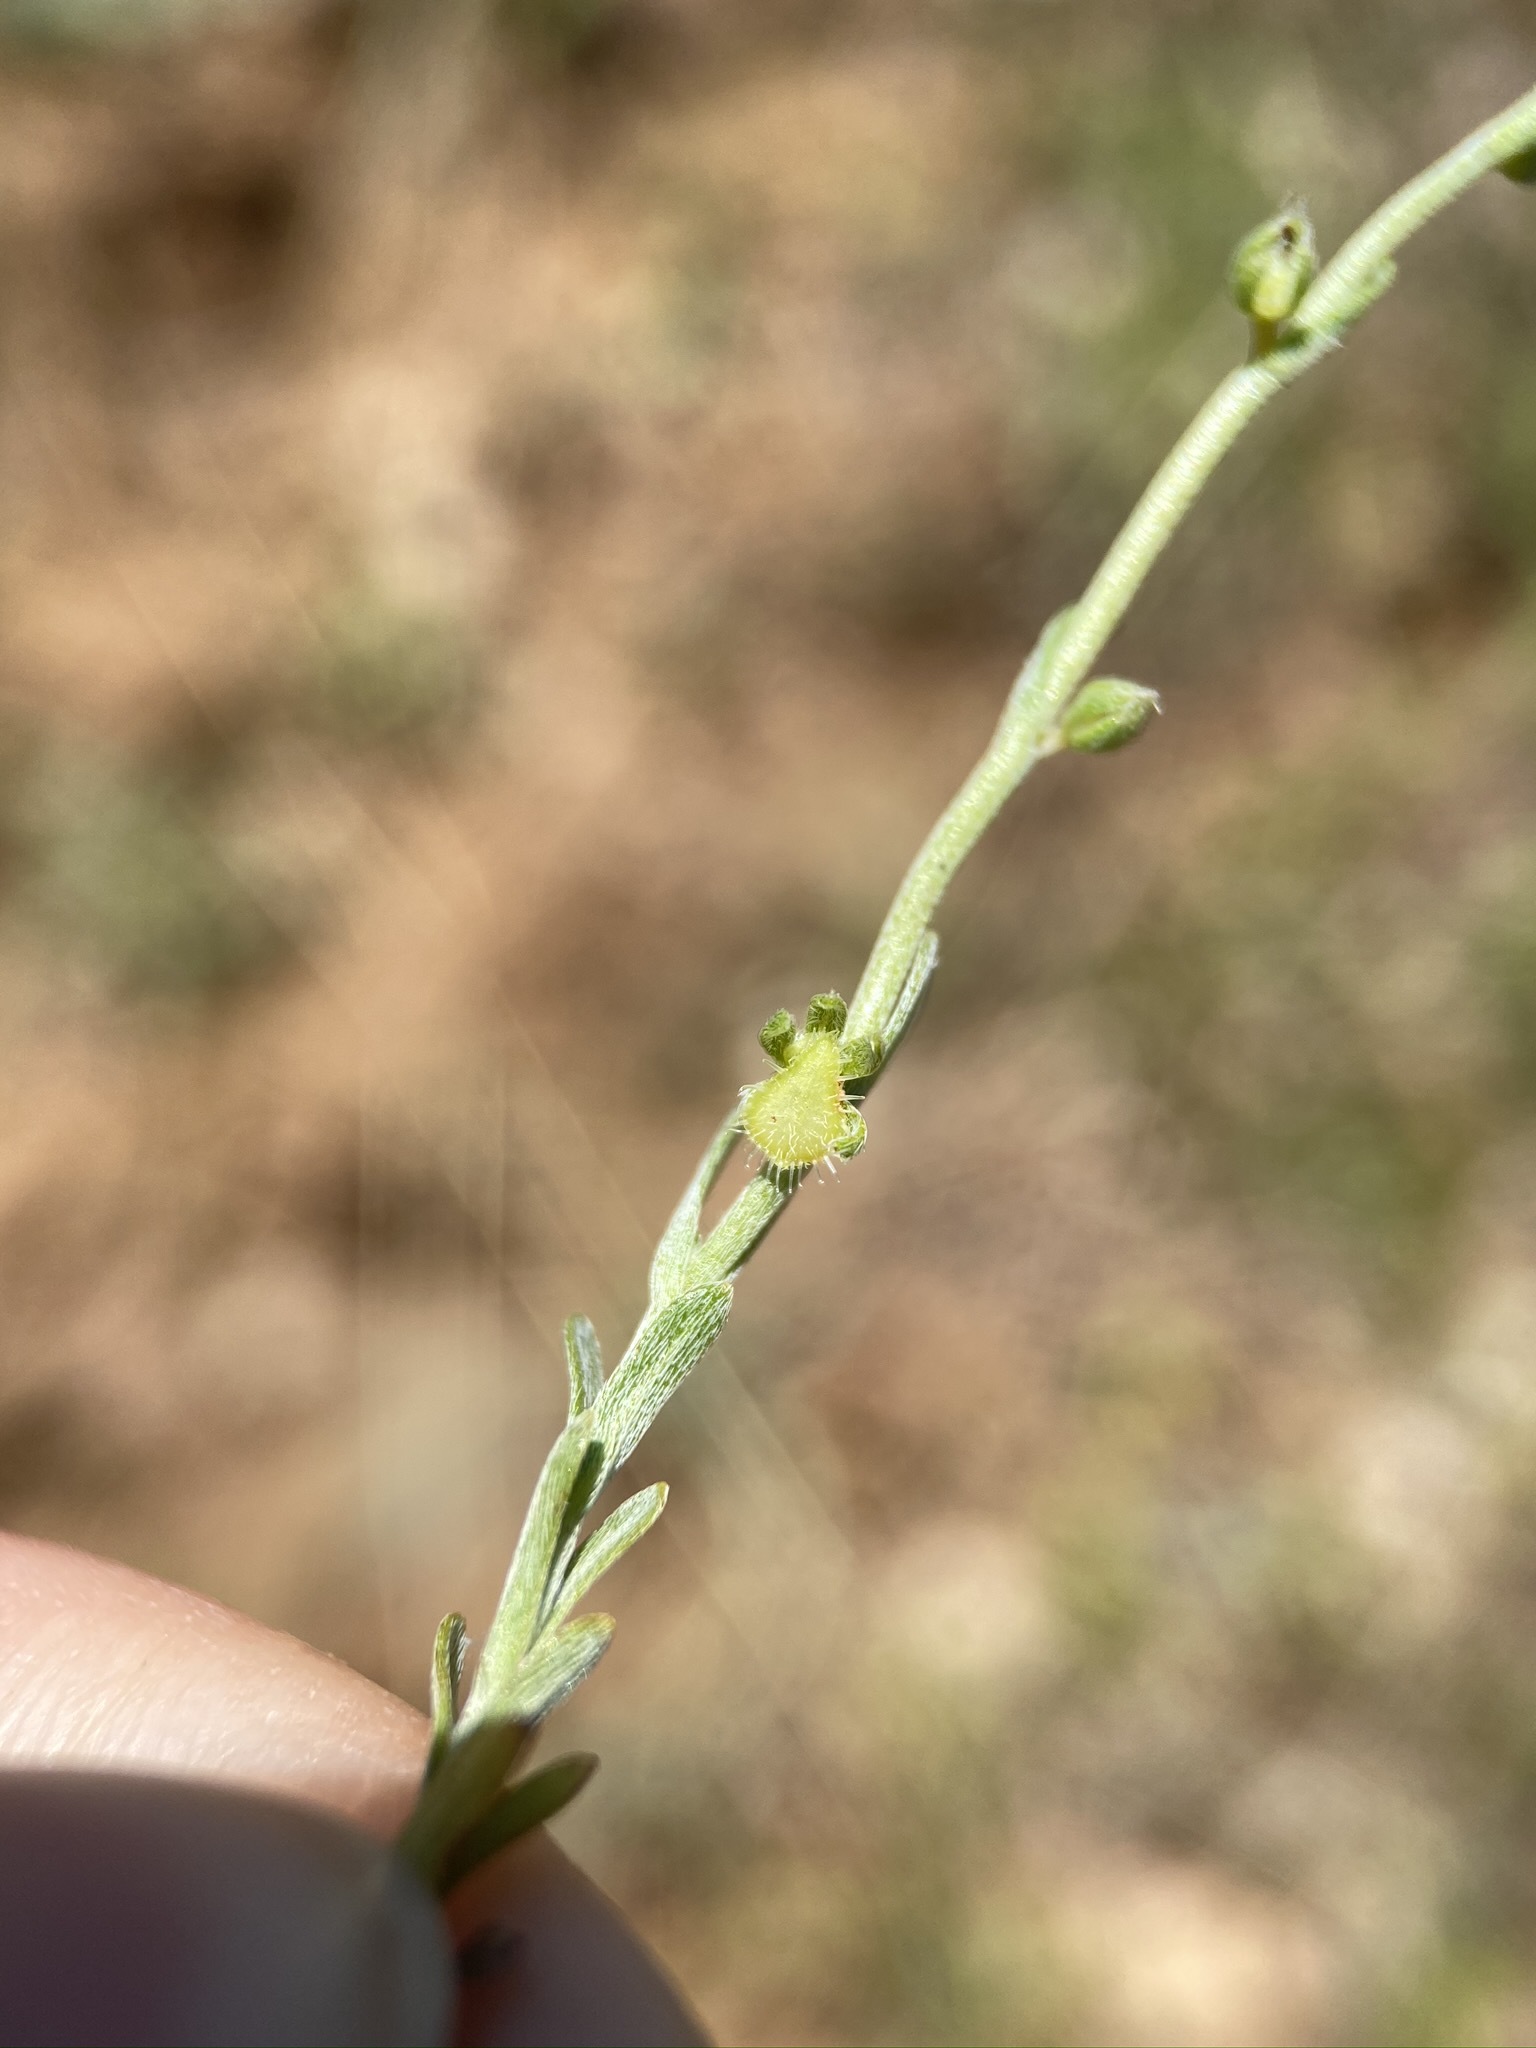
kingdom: Plantae
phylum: Tracheophyta
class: Magnoliopsida
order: Boraginales
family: Boraginaceae
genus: Pectocarya
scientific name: Pectocarya pusilla
